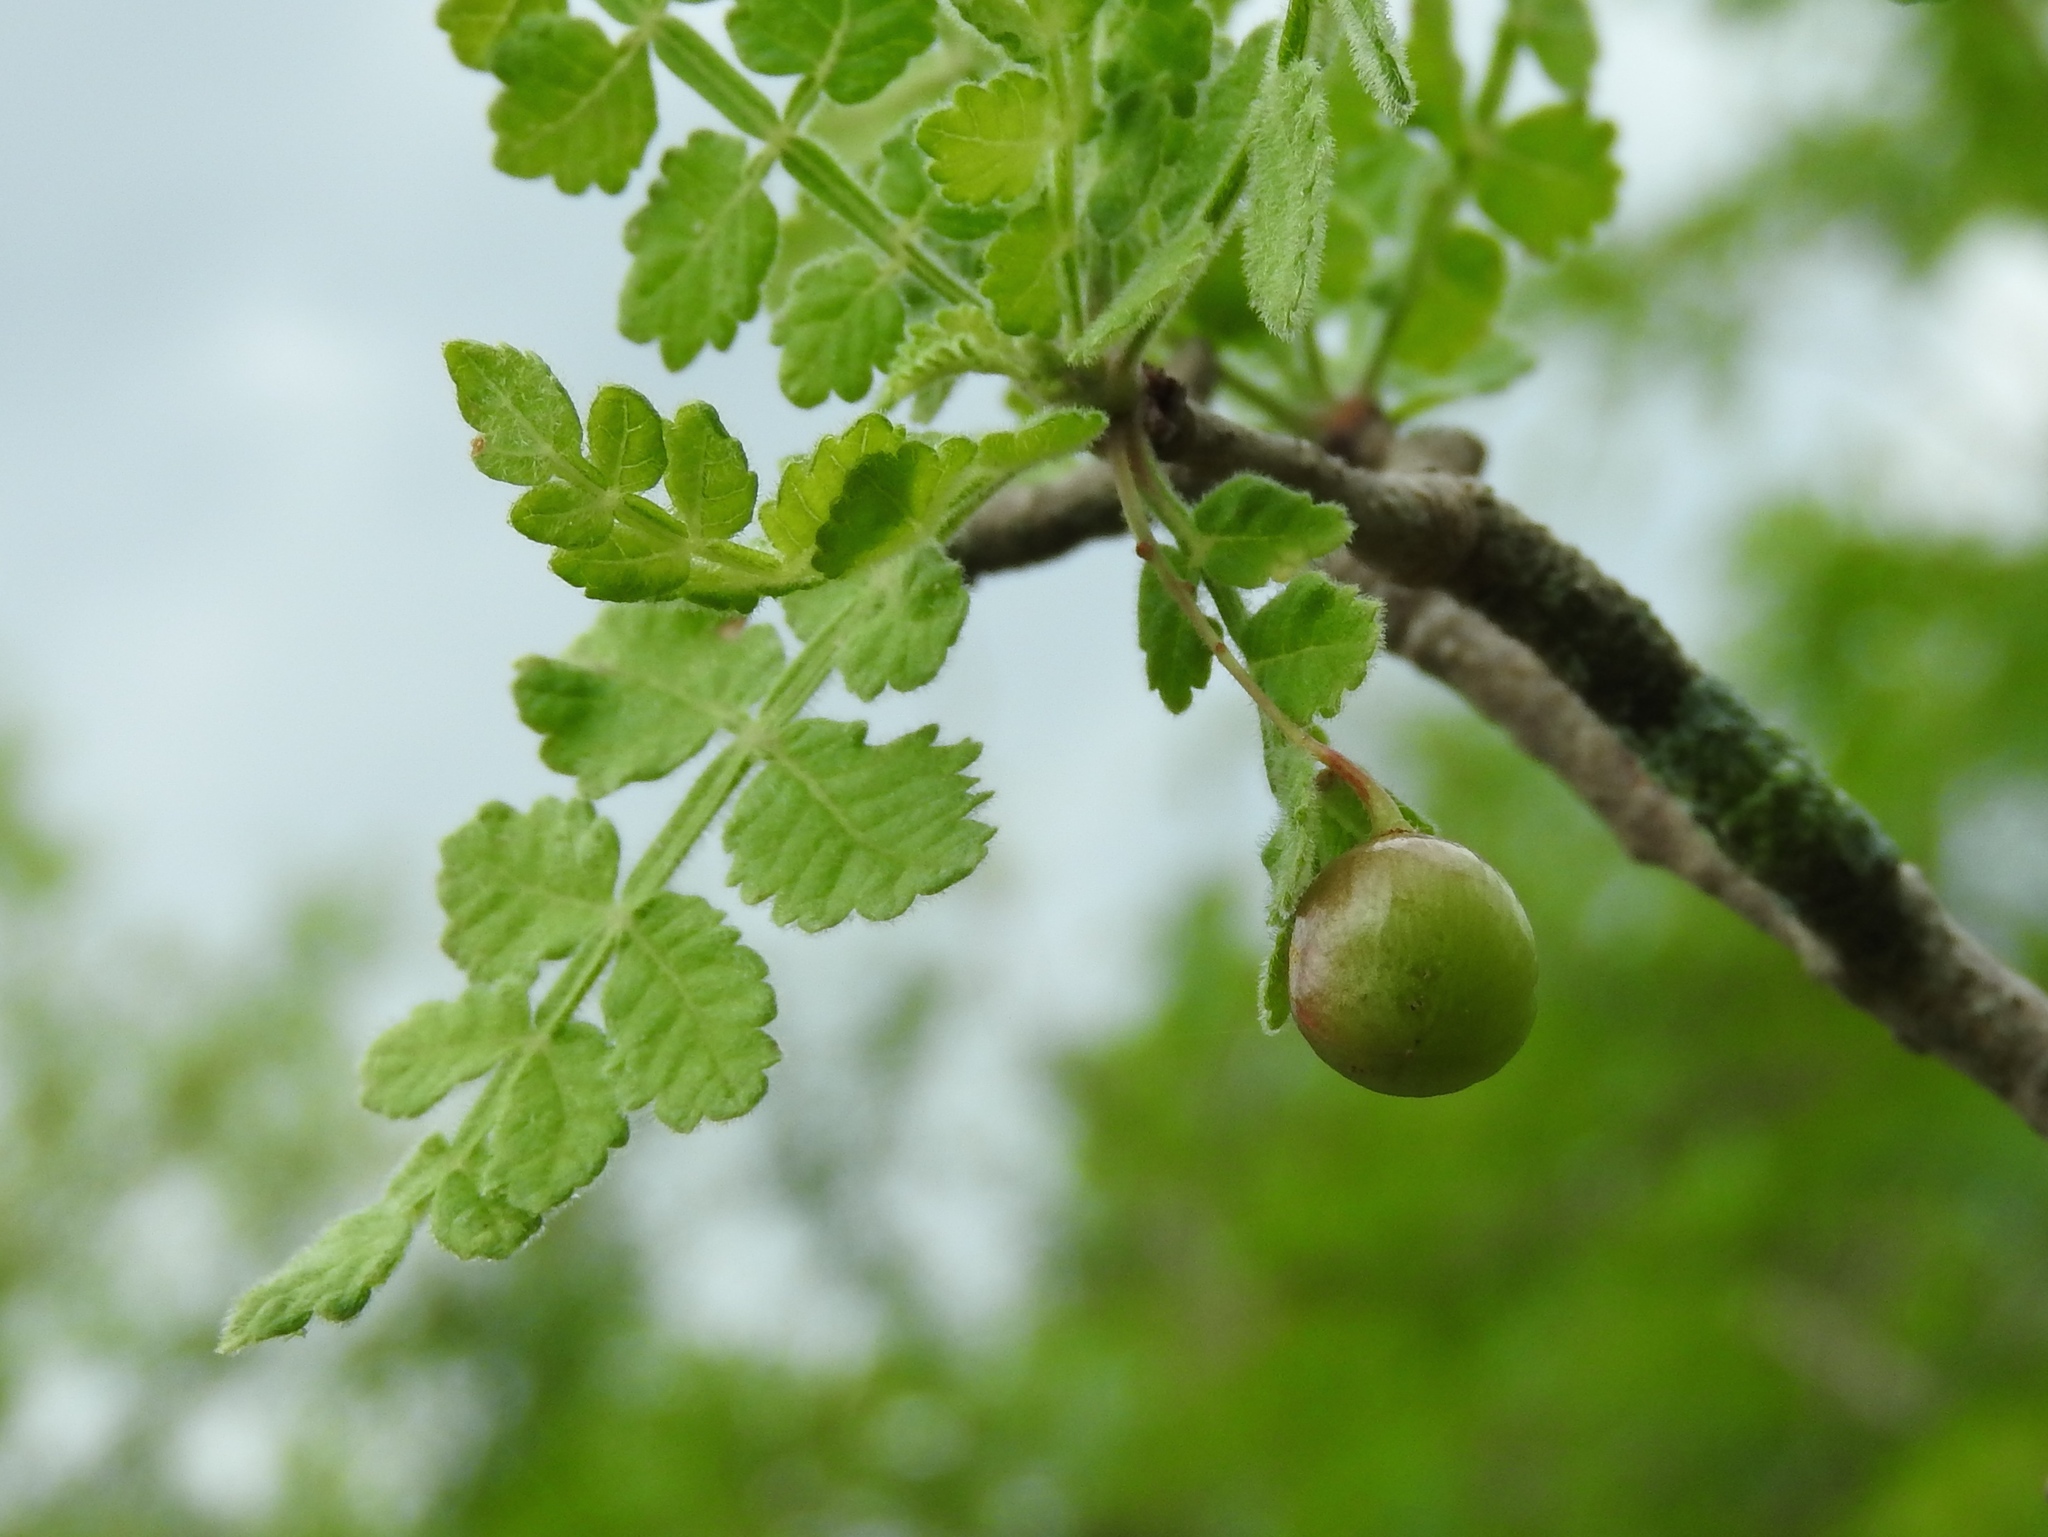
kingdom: Plantae
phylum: Tracheophyta
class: Magnoliopsida
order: Sapindales
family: Burseraceae
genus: Bursera
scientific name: Bursera ribana
